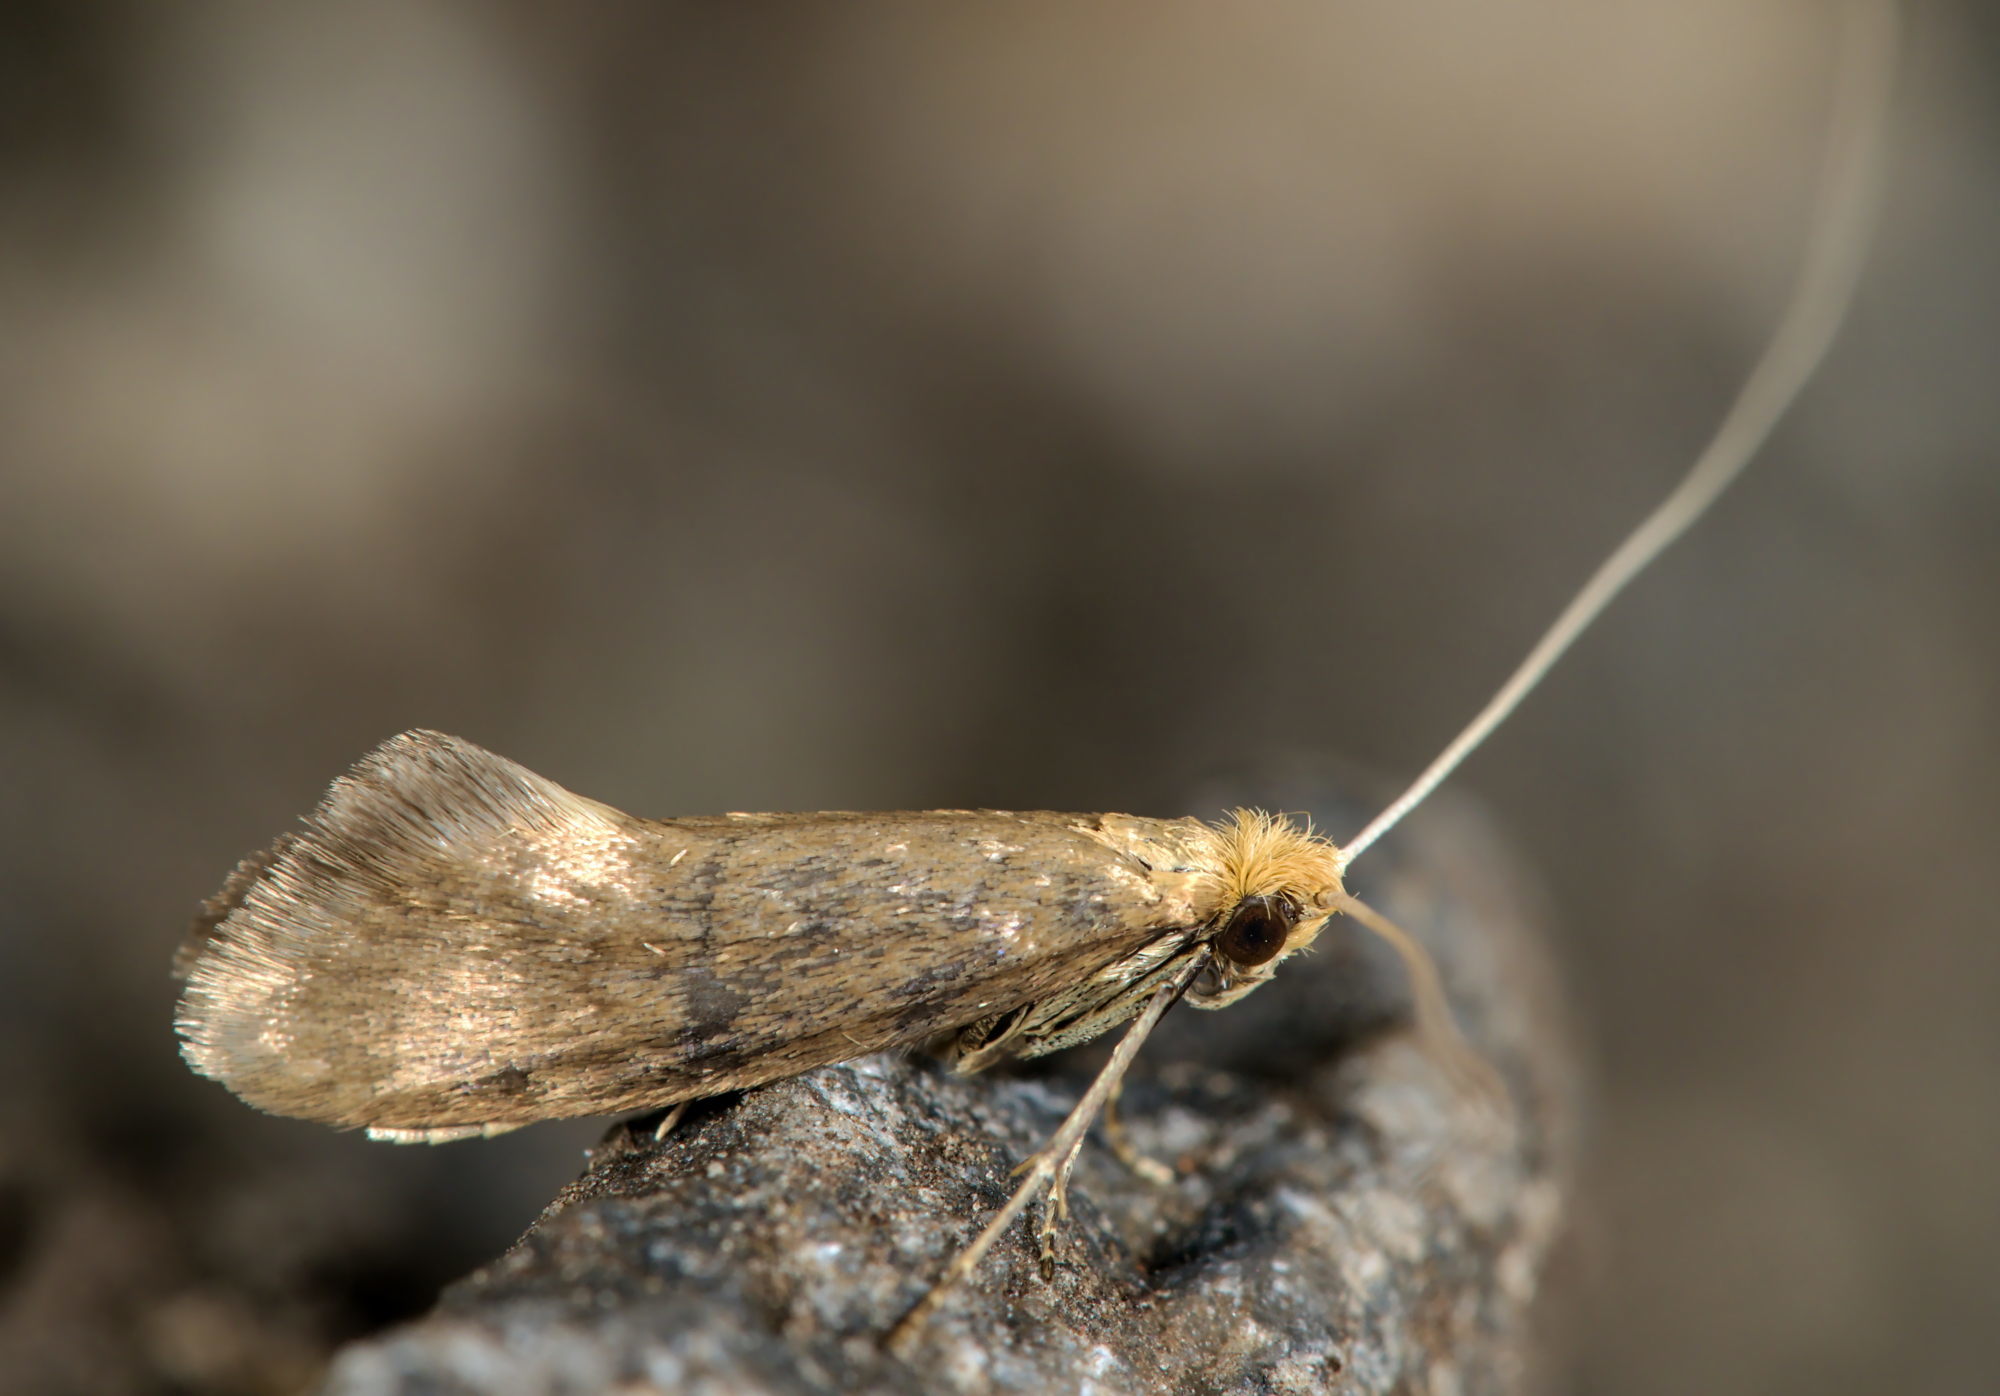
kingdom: Animalia
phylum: Arthropoda
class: Insecta
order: Lepidoptera
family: Adelidae
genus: Nematopogon
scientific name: Nematopogon swammerdamella
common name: Large long-horn
